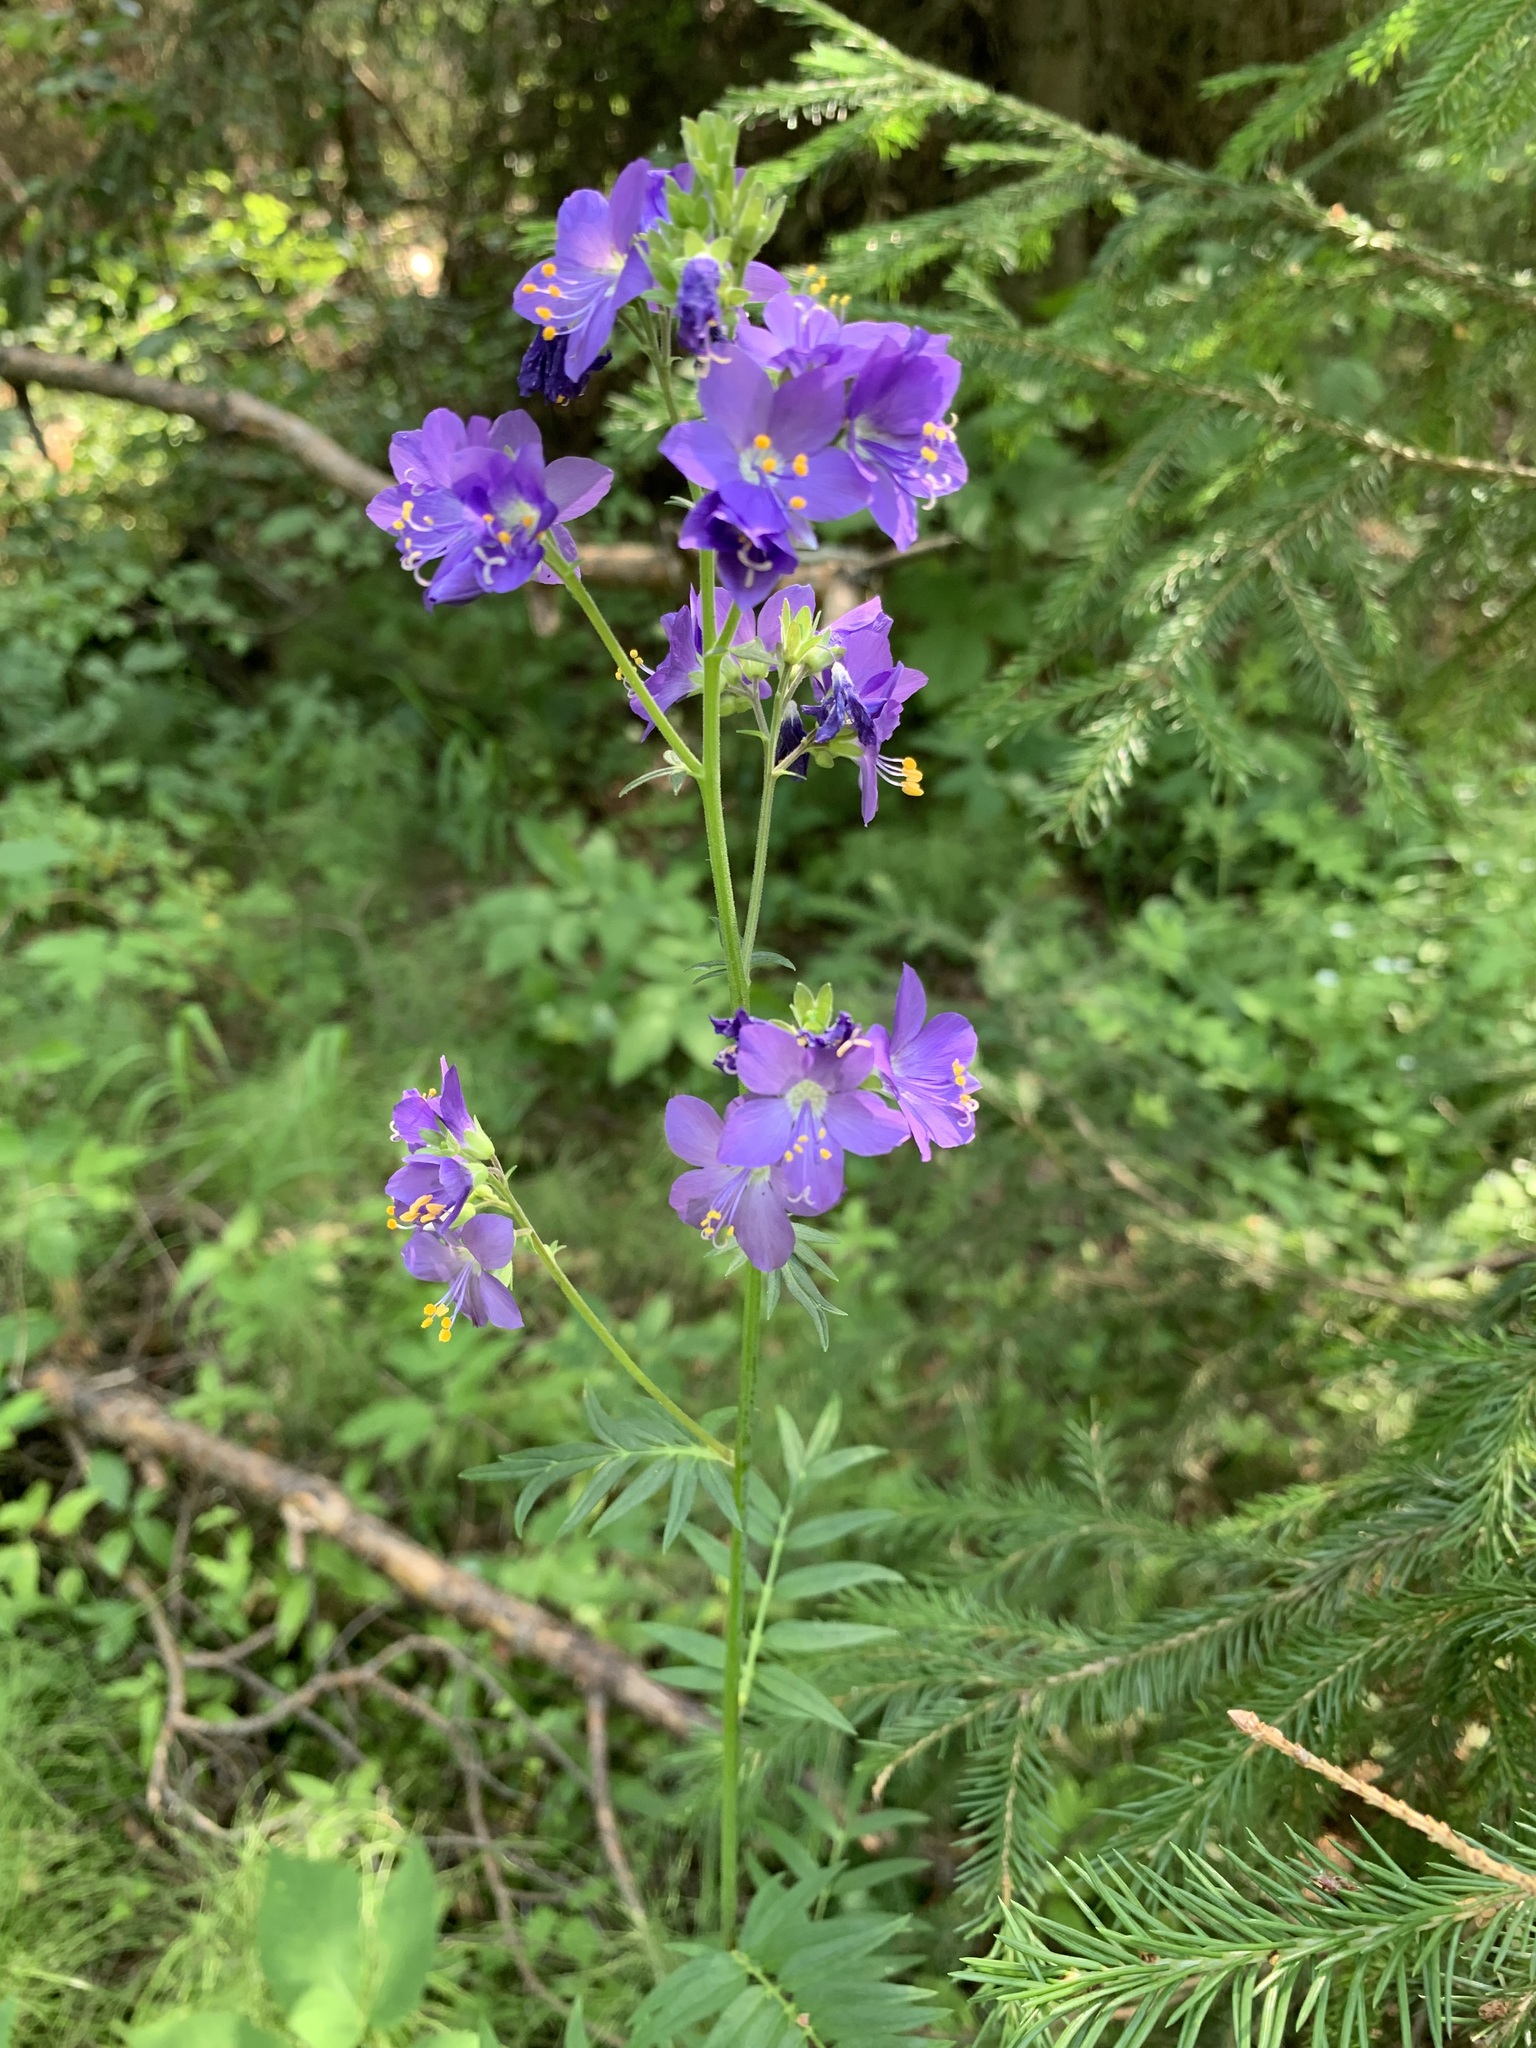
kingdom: Plantae
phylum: Tracheophyta
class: Magnoliopsida
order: Ericales
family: Polemoniaceae
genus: Polemonium
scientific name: Polemonium caeruleum
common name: Jacob's-ladder
